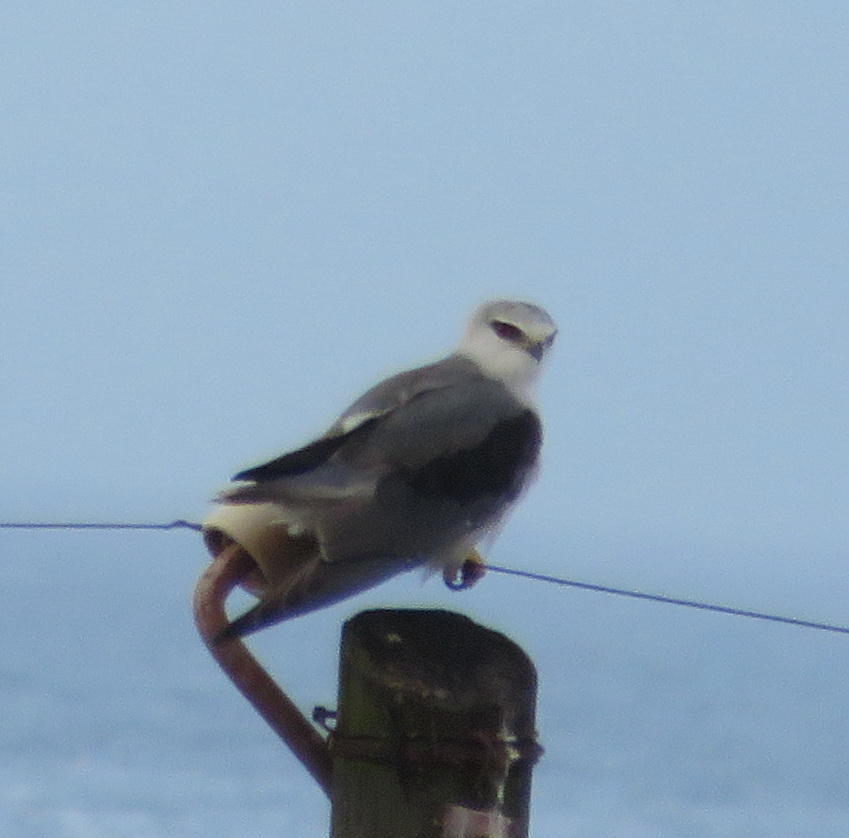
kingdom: Animalia
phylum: Chordata
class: Aves
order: Accipitriformes
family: Accipitridae
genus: Elanus
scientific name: Elanus caeruleus
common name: Black-winged kite
